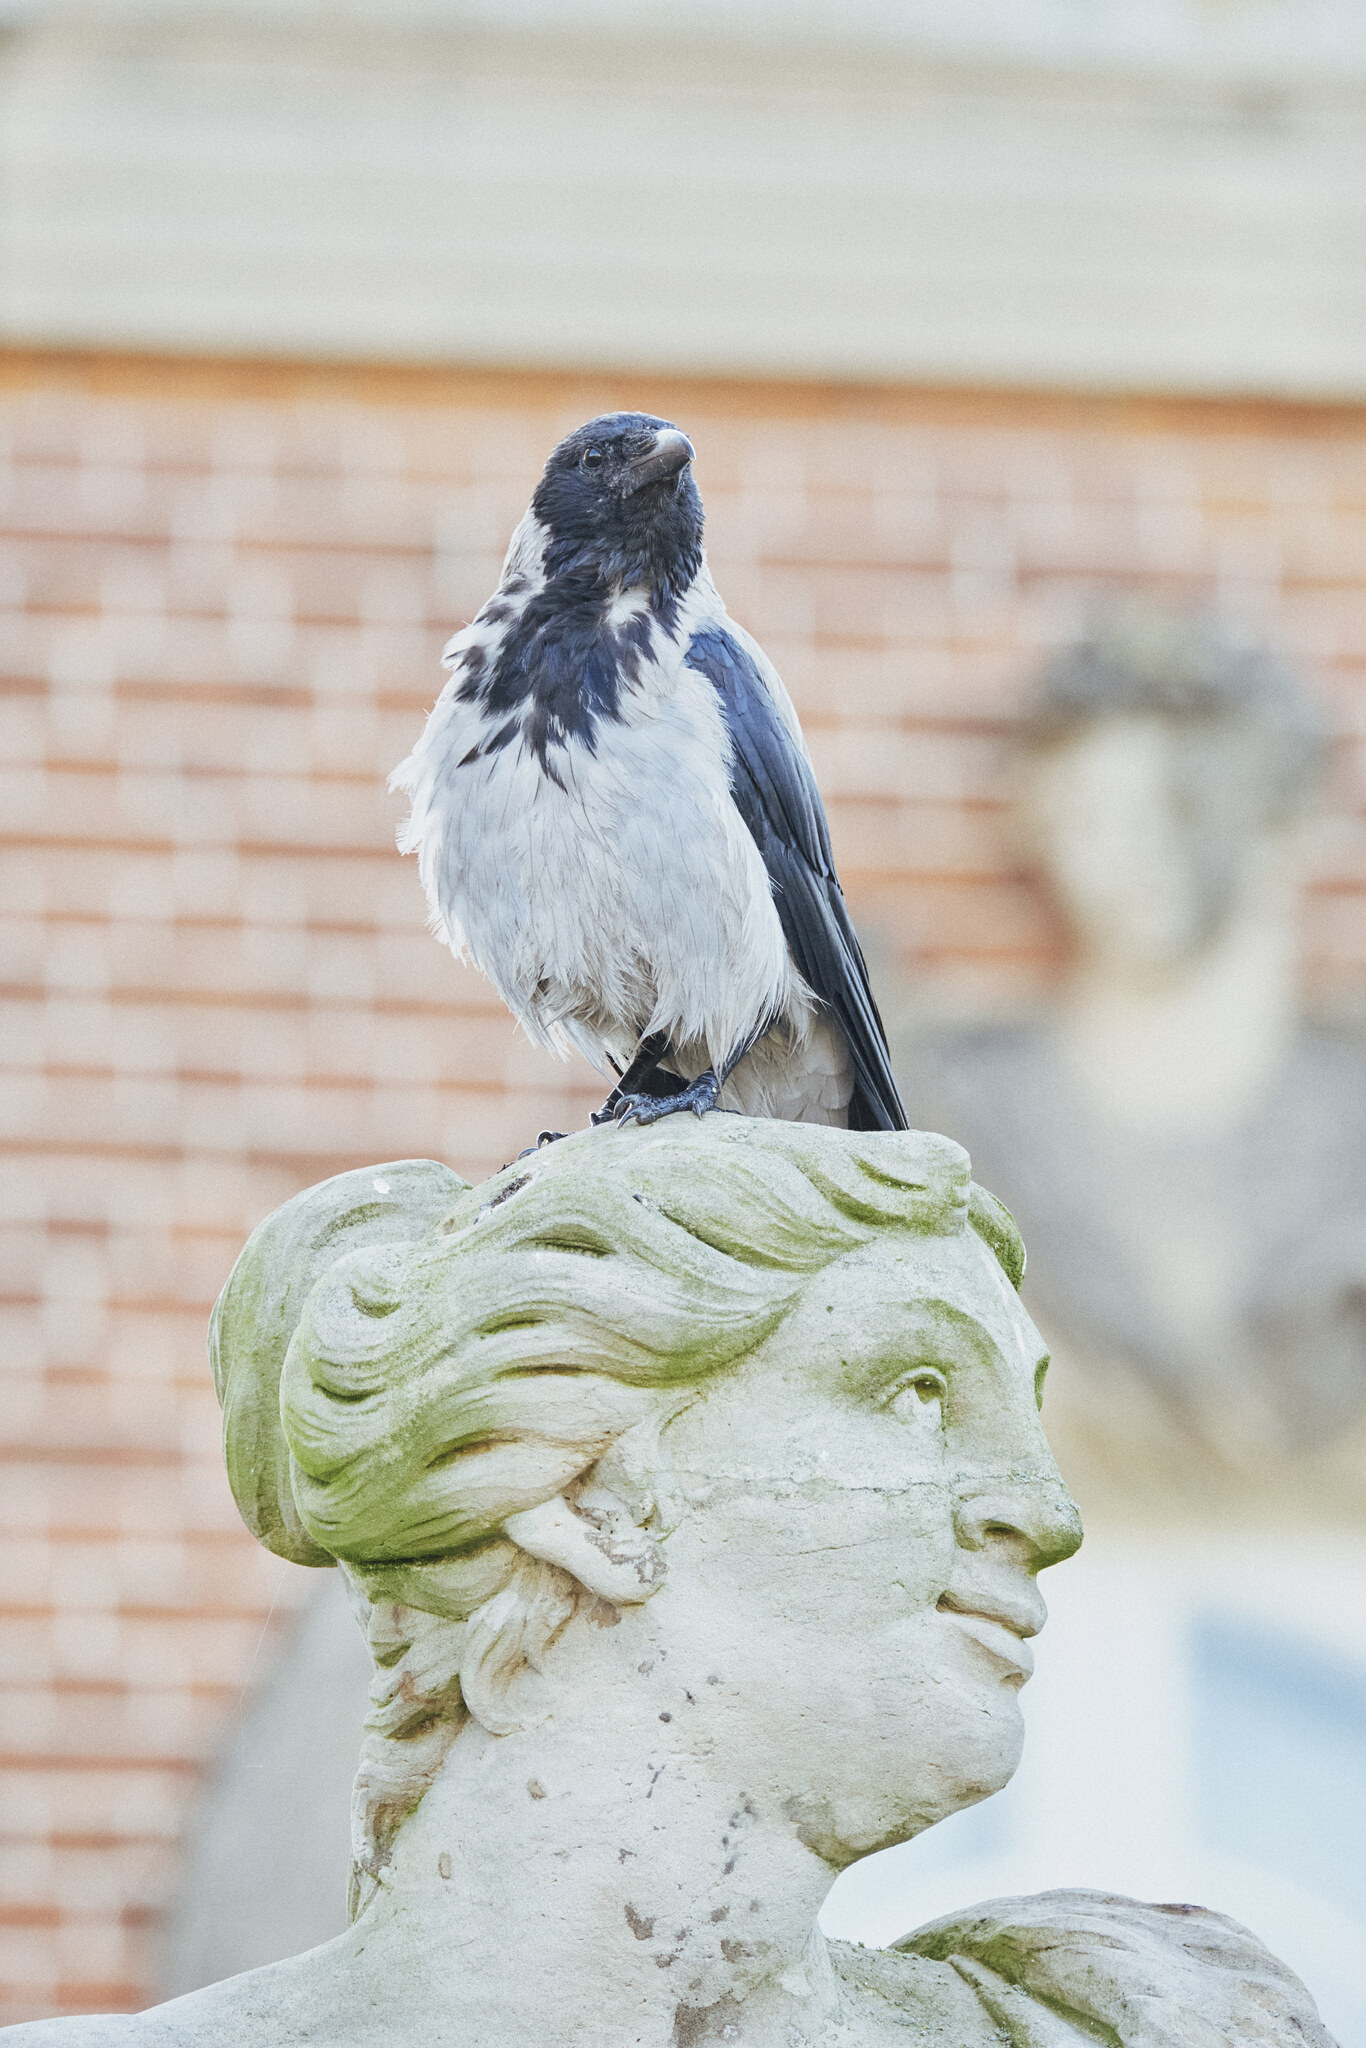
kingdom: Animalia
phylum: Chordata
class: Aves
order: Passeriformes
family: Corvidae
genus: Corvus
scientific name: Corvus cornix
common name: Hooded crow
